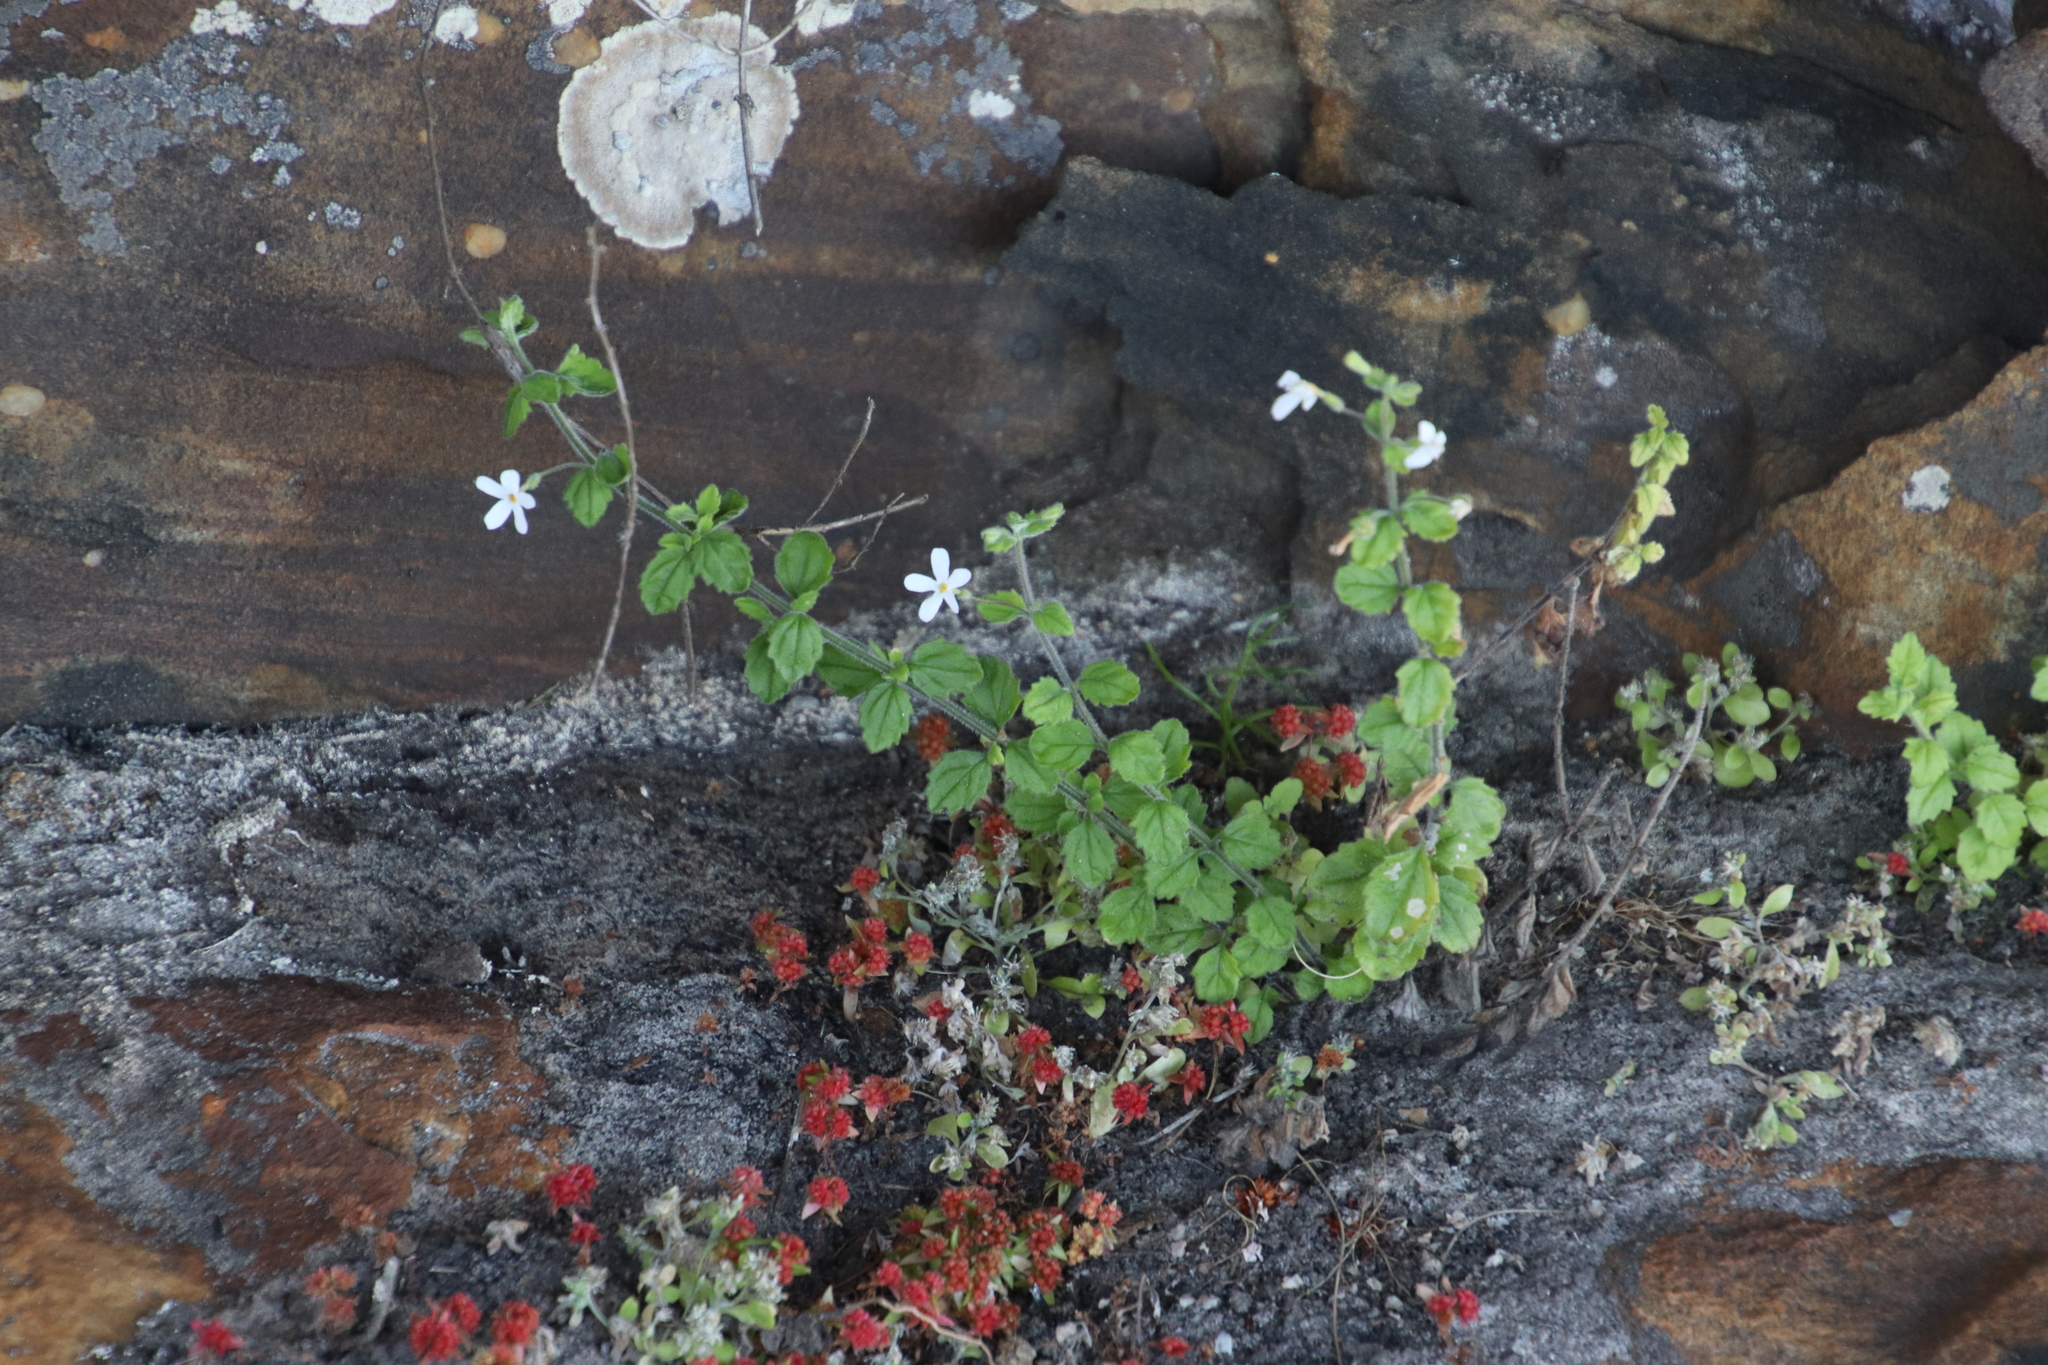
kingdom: Plantae
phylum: Tracheophyta
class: Magnoliopsida
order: Saxifragales
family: Crassulaceae
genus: Crassula
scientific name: Crassula glomerata
